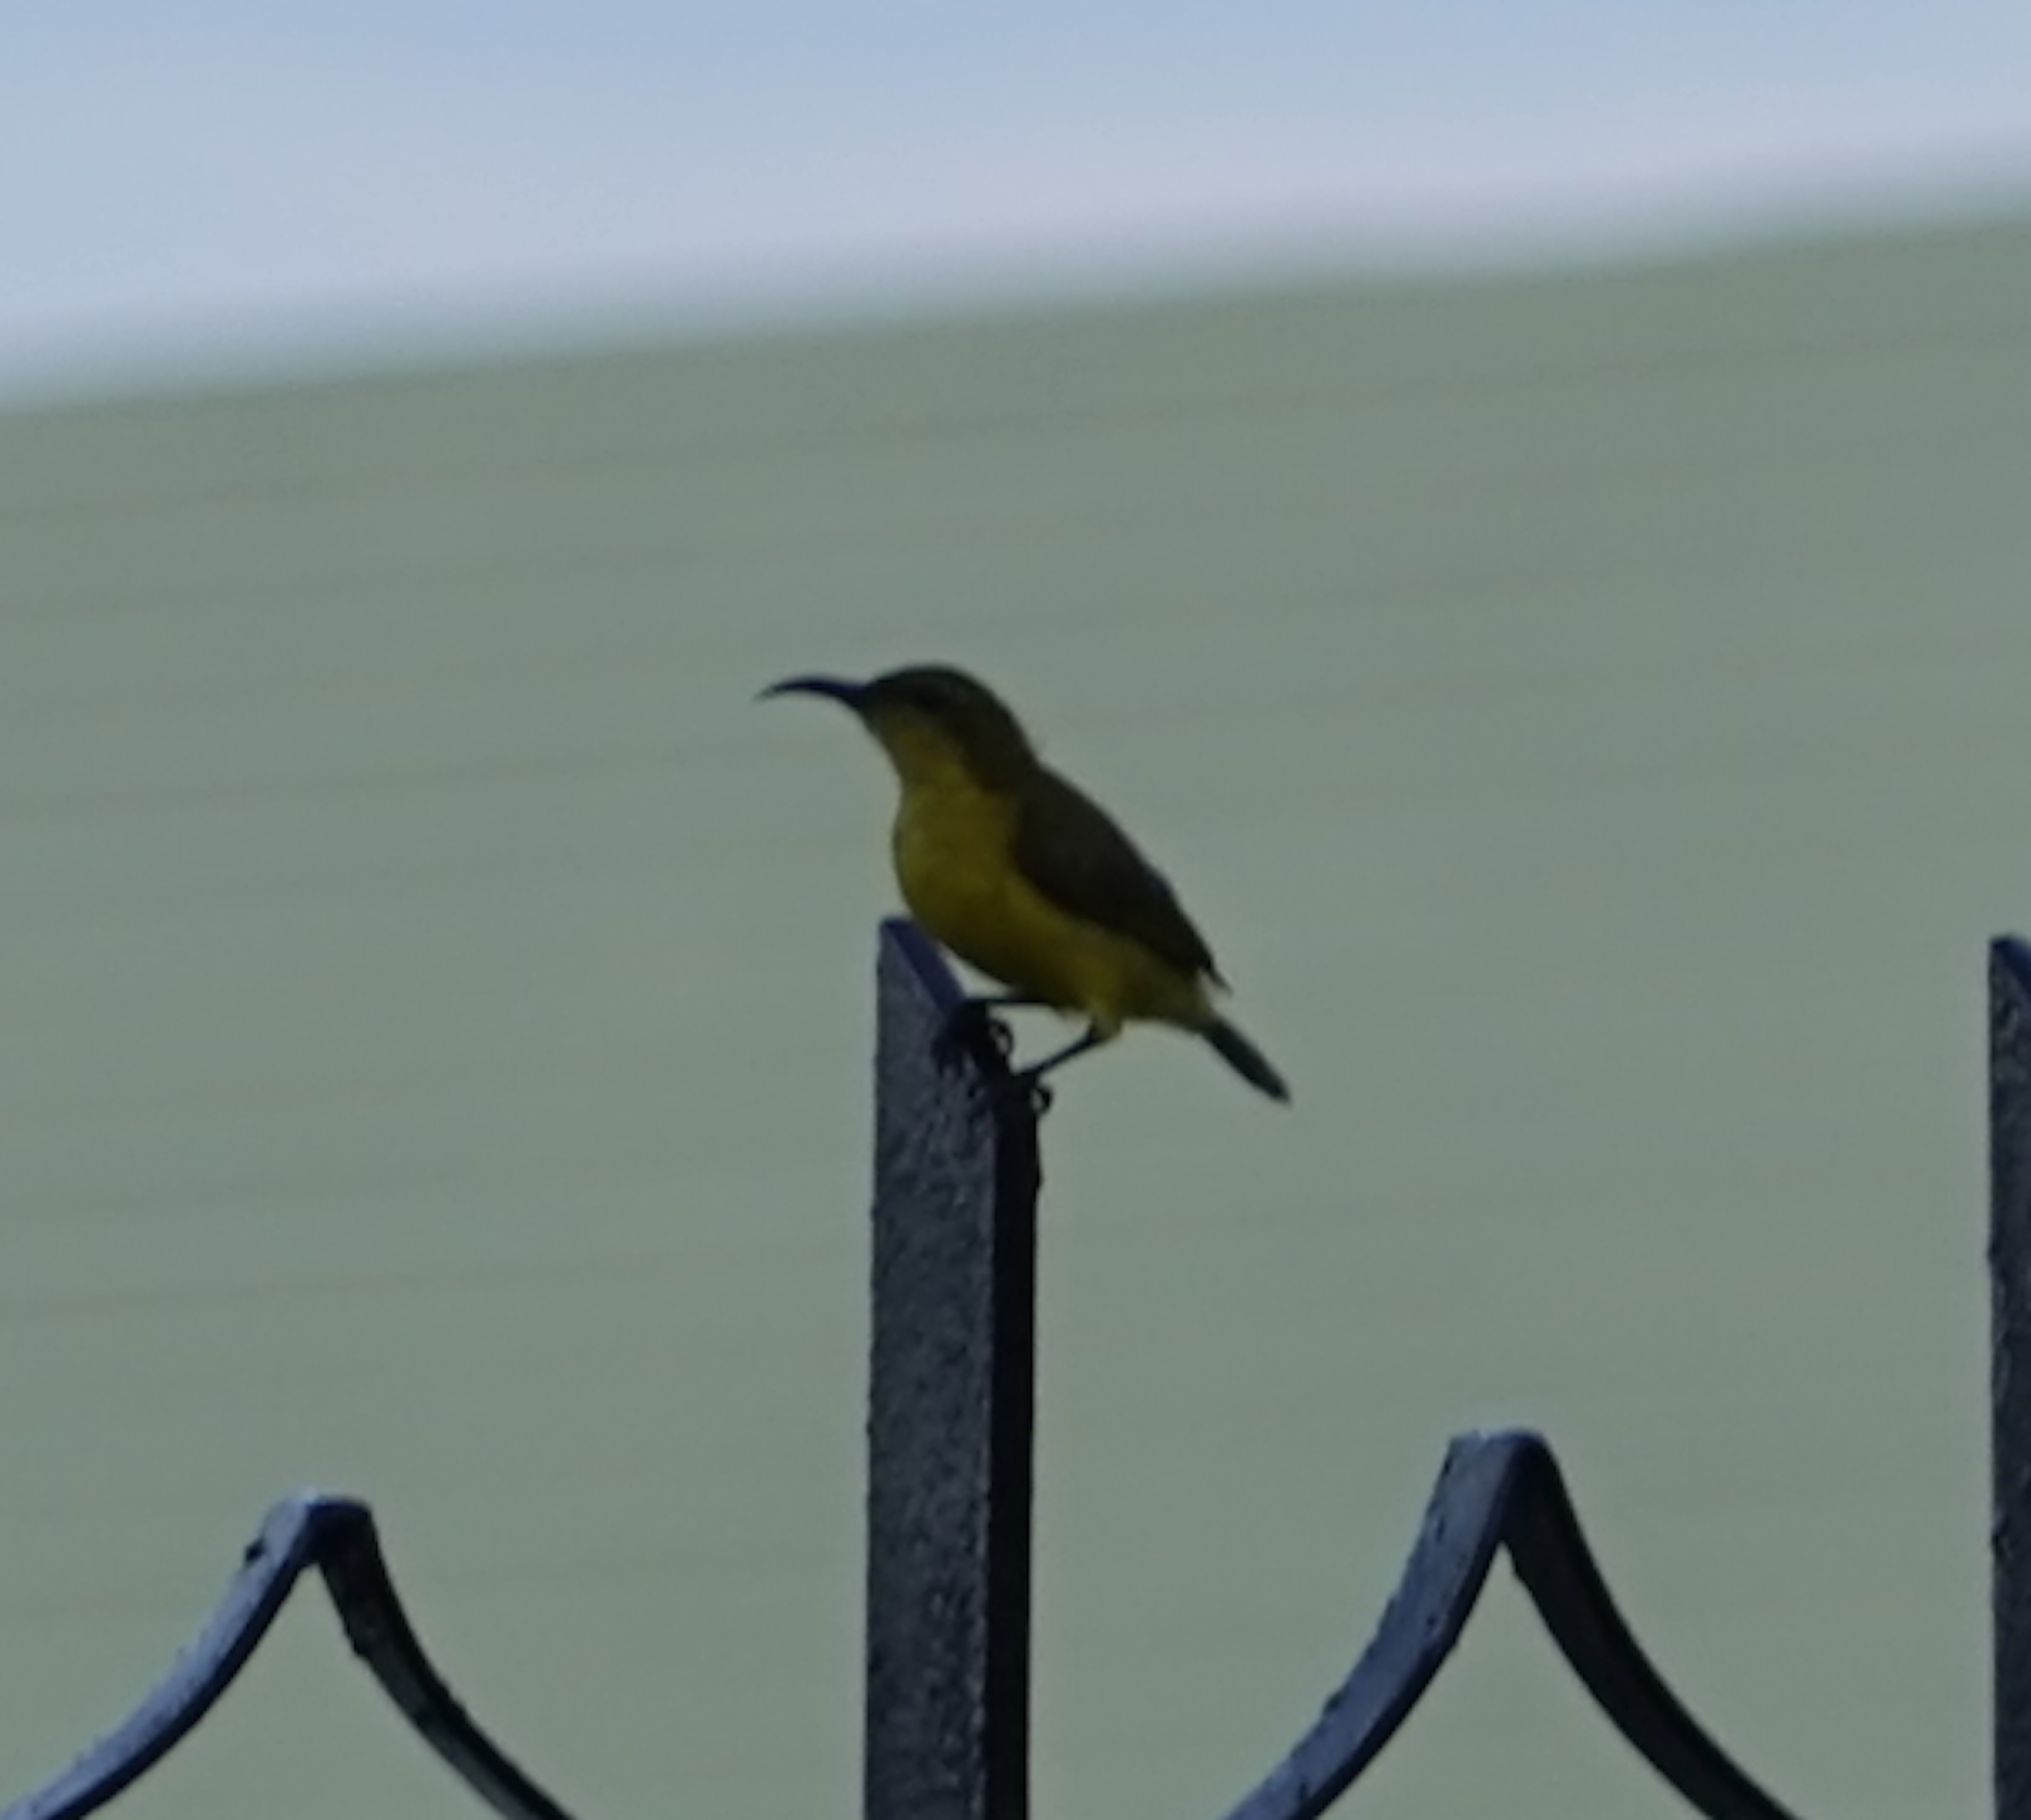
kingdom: Animalia
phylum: Chordata
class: Aves
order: Passeriformes
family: Nectariniidae
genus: Cinnyris
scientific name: Cinnyris
